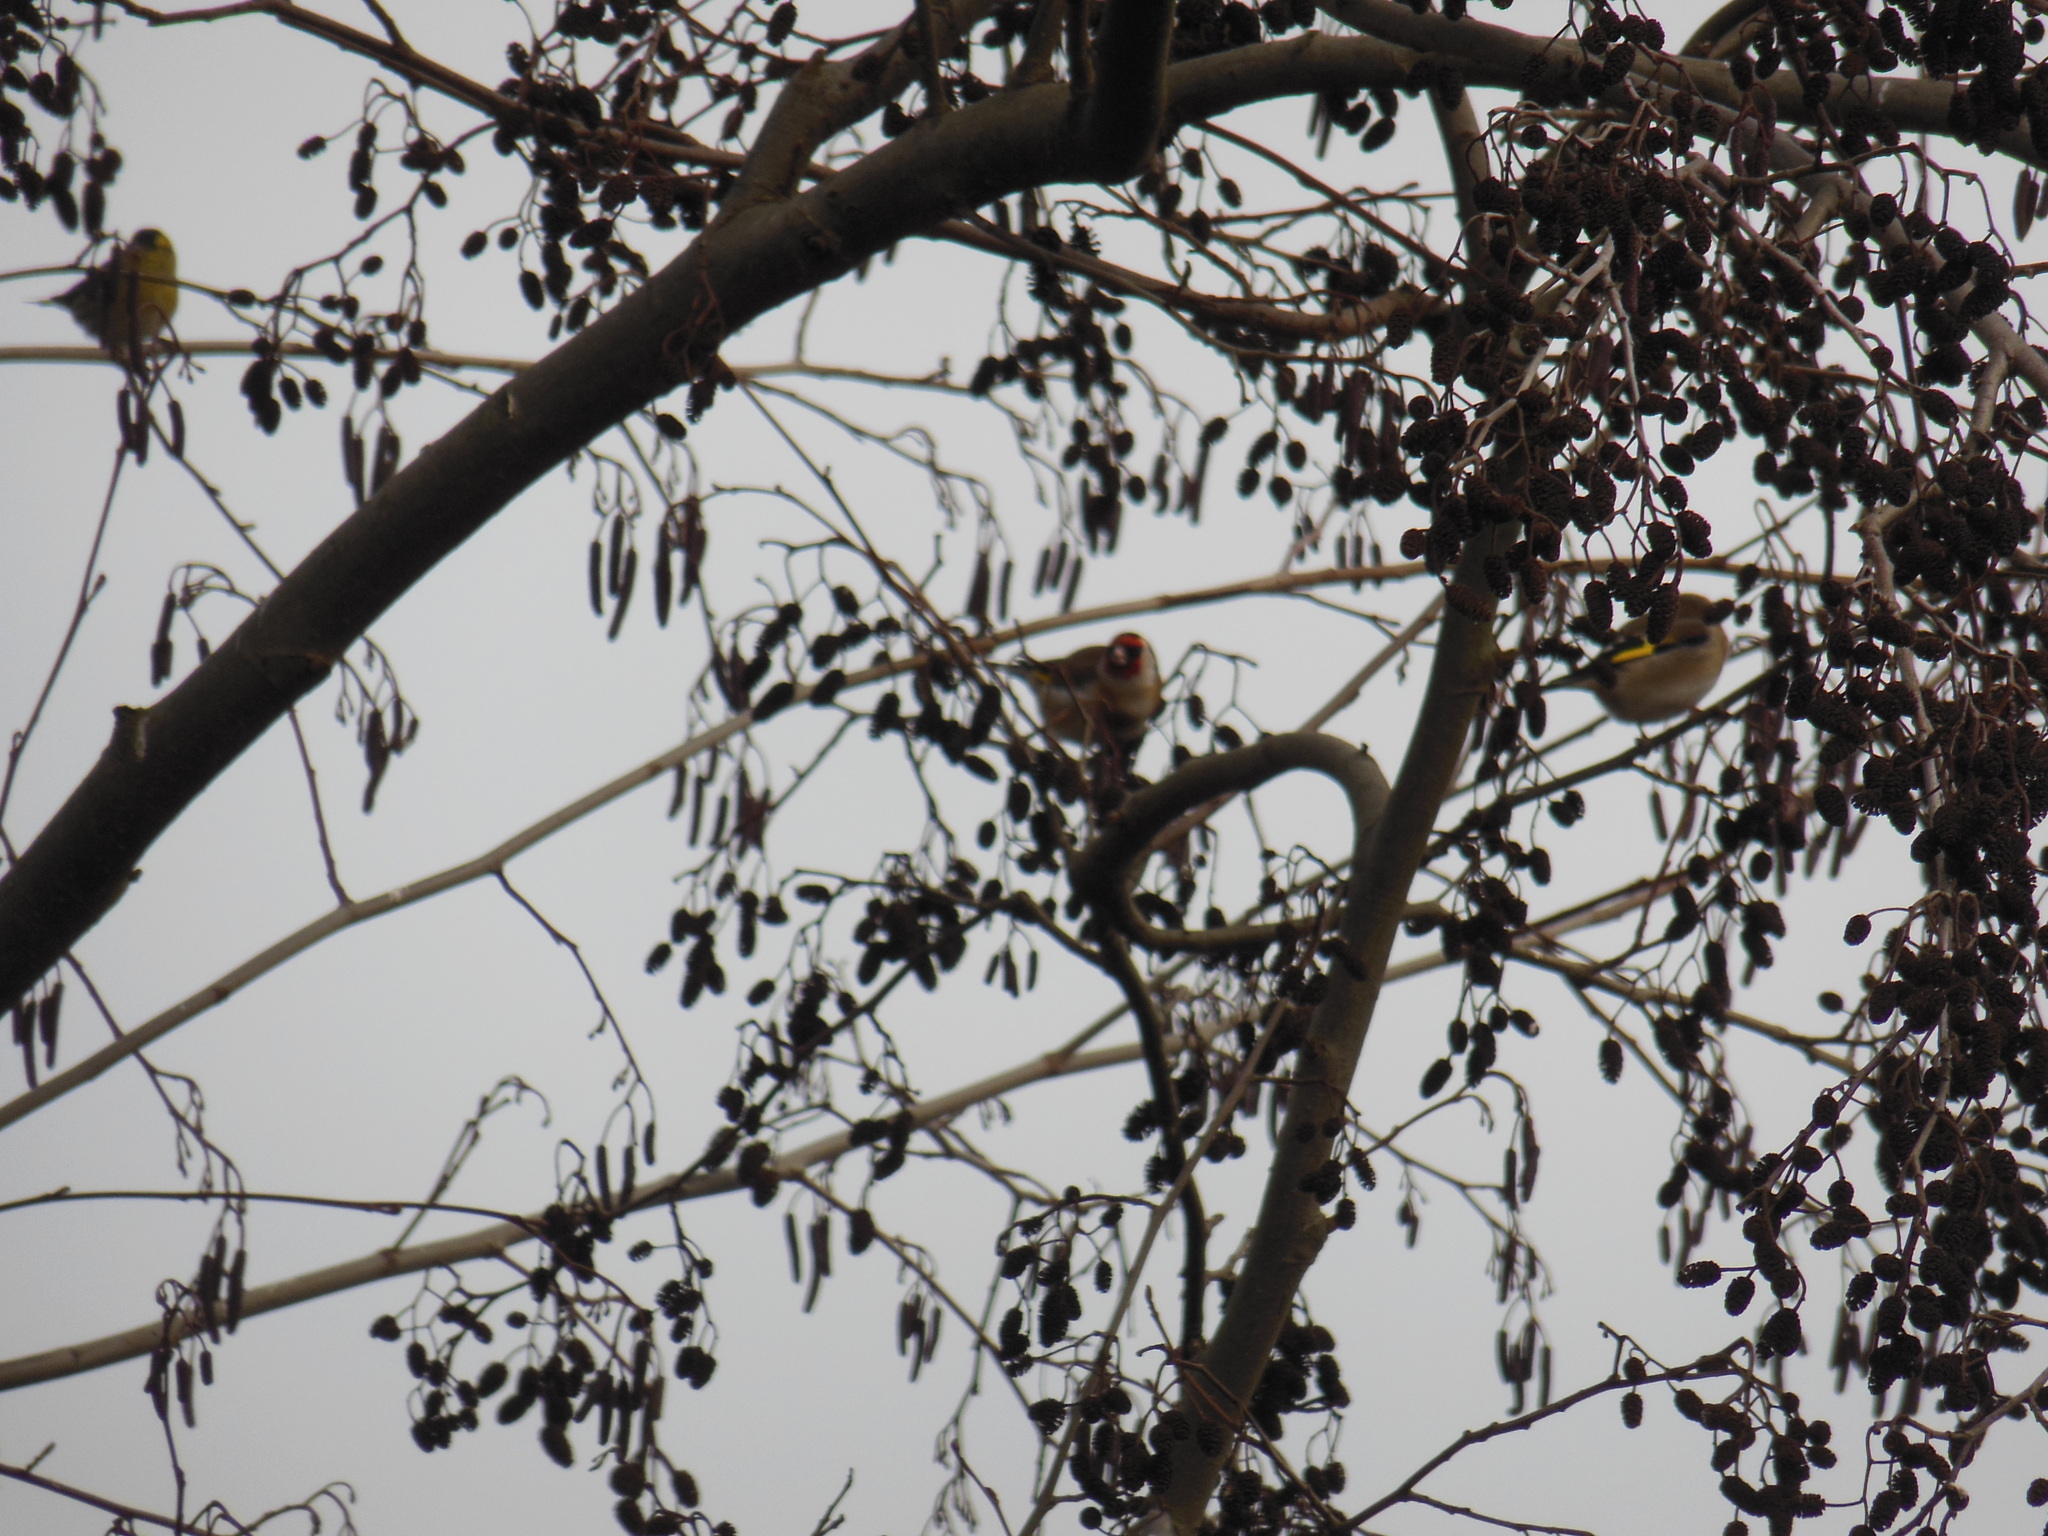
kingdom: Animalia
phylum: Chordata
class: Aves
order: Passeriformes
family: Fringillidae
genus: Carduelis
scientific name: Carduelis carduelis
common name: European goldfinch
